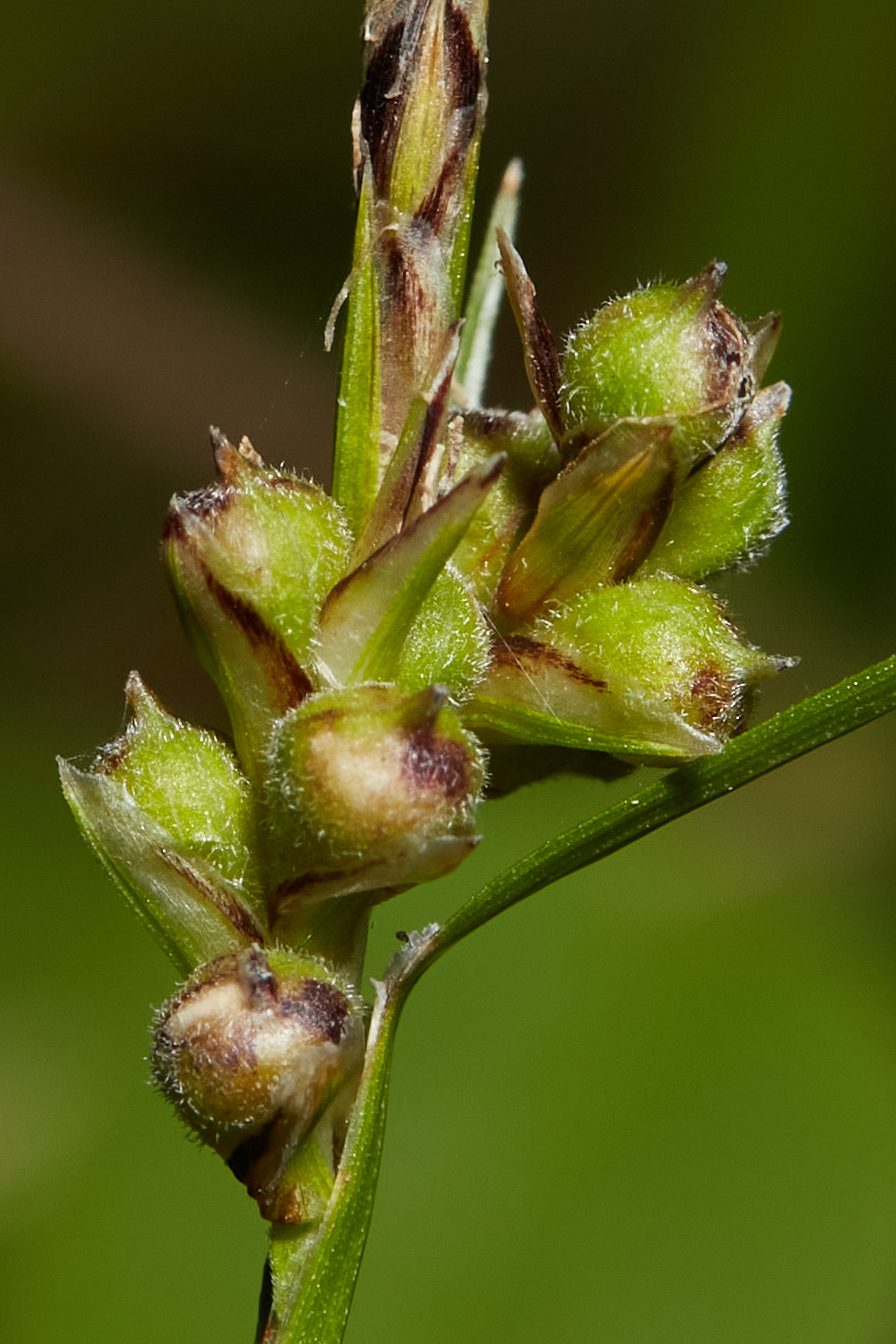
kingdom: Plantae
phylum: Tracheophyta
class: Liliopsida
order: Poales
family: Cyperaceae
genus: Carex
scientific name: Carex globosa
